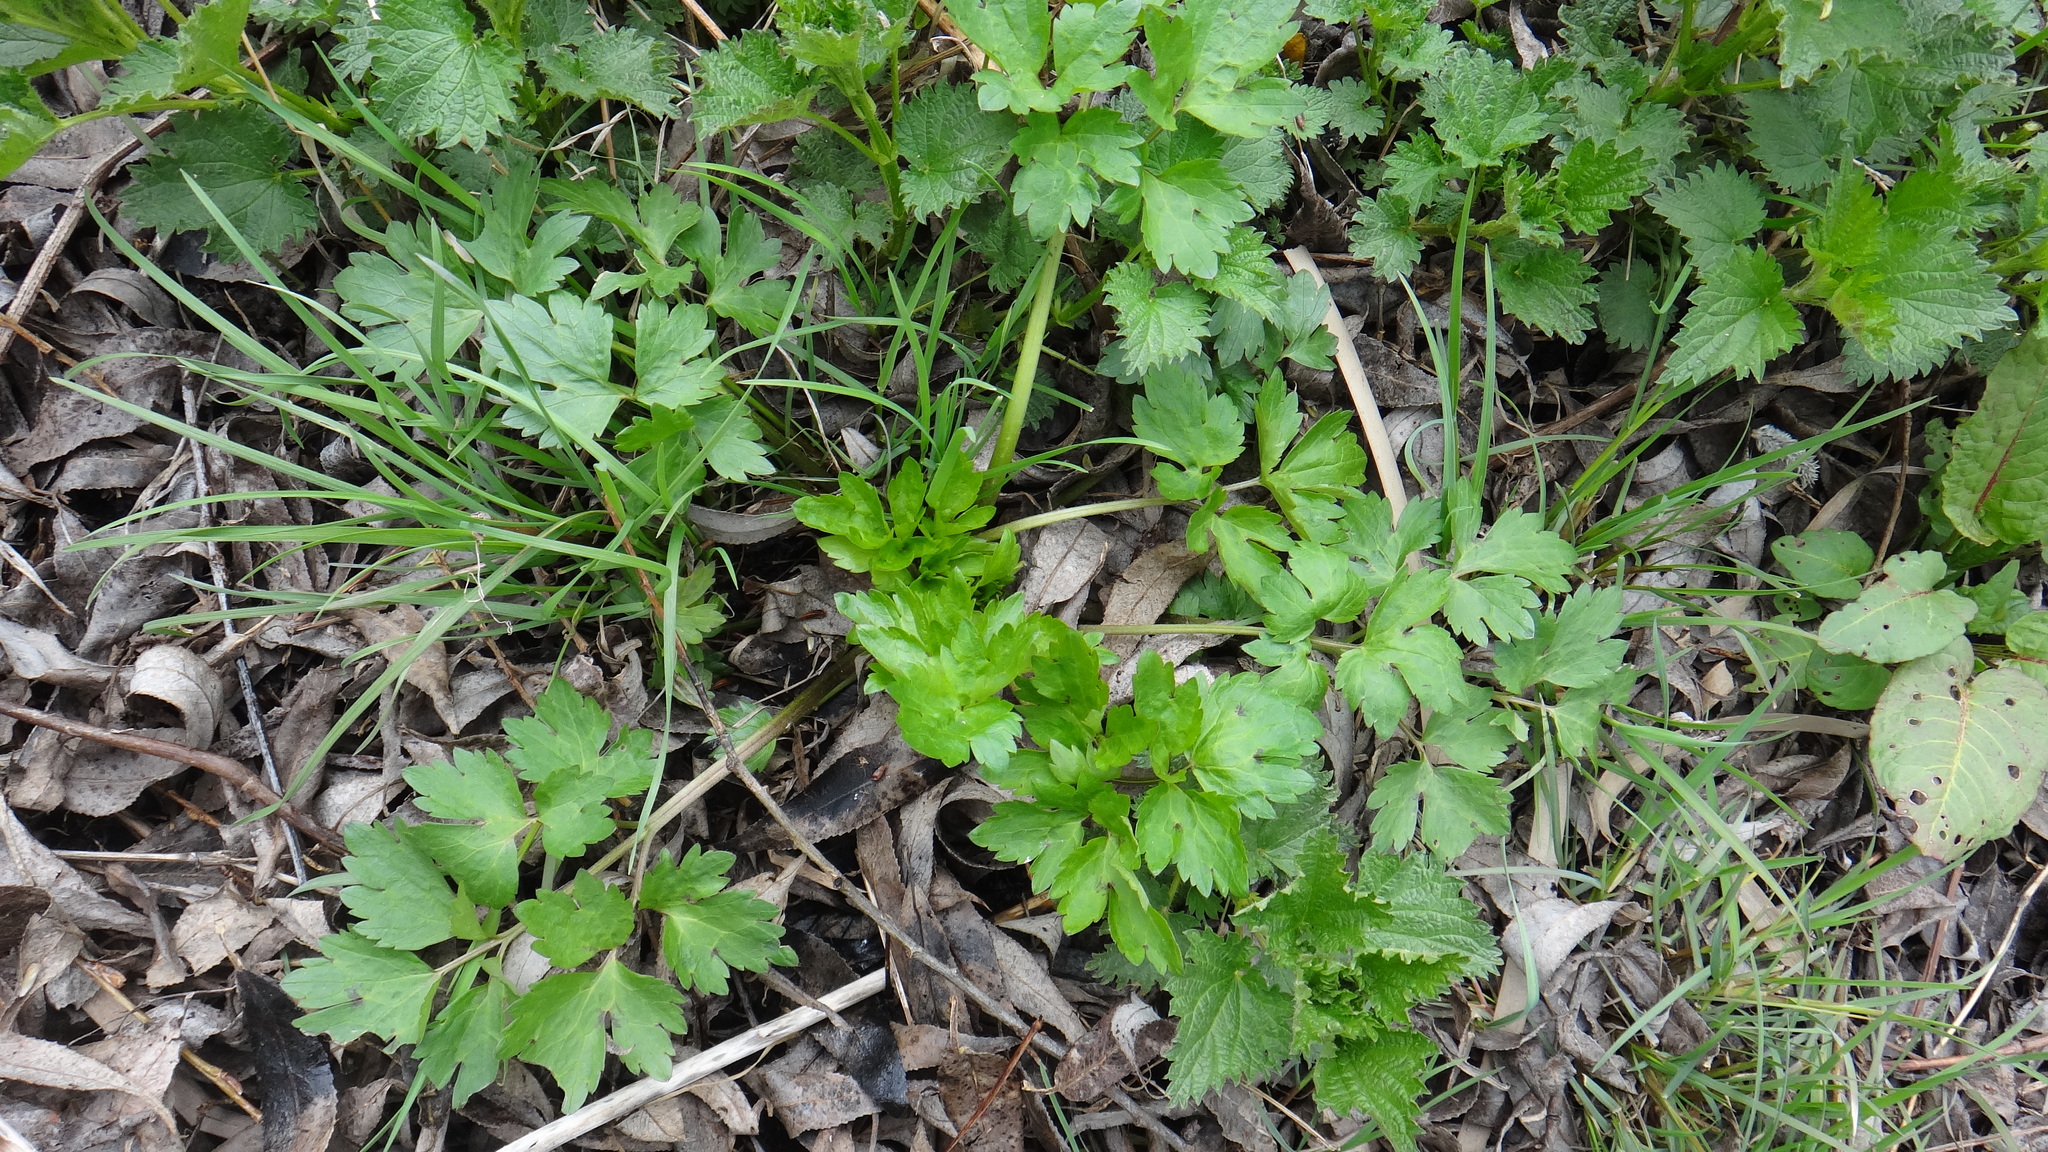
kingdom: Plantae
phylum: Tracheophyta
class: Magnoliopsida
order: Ranunculales
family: Ranunculaceae
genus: Ranunculus
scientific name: Ranunculus repens
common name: Creeping buttercup
